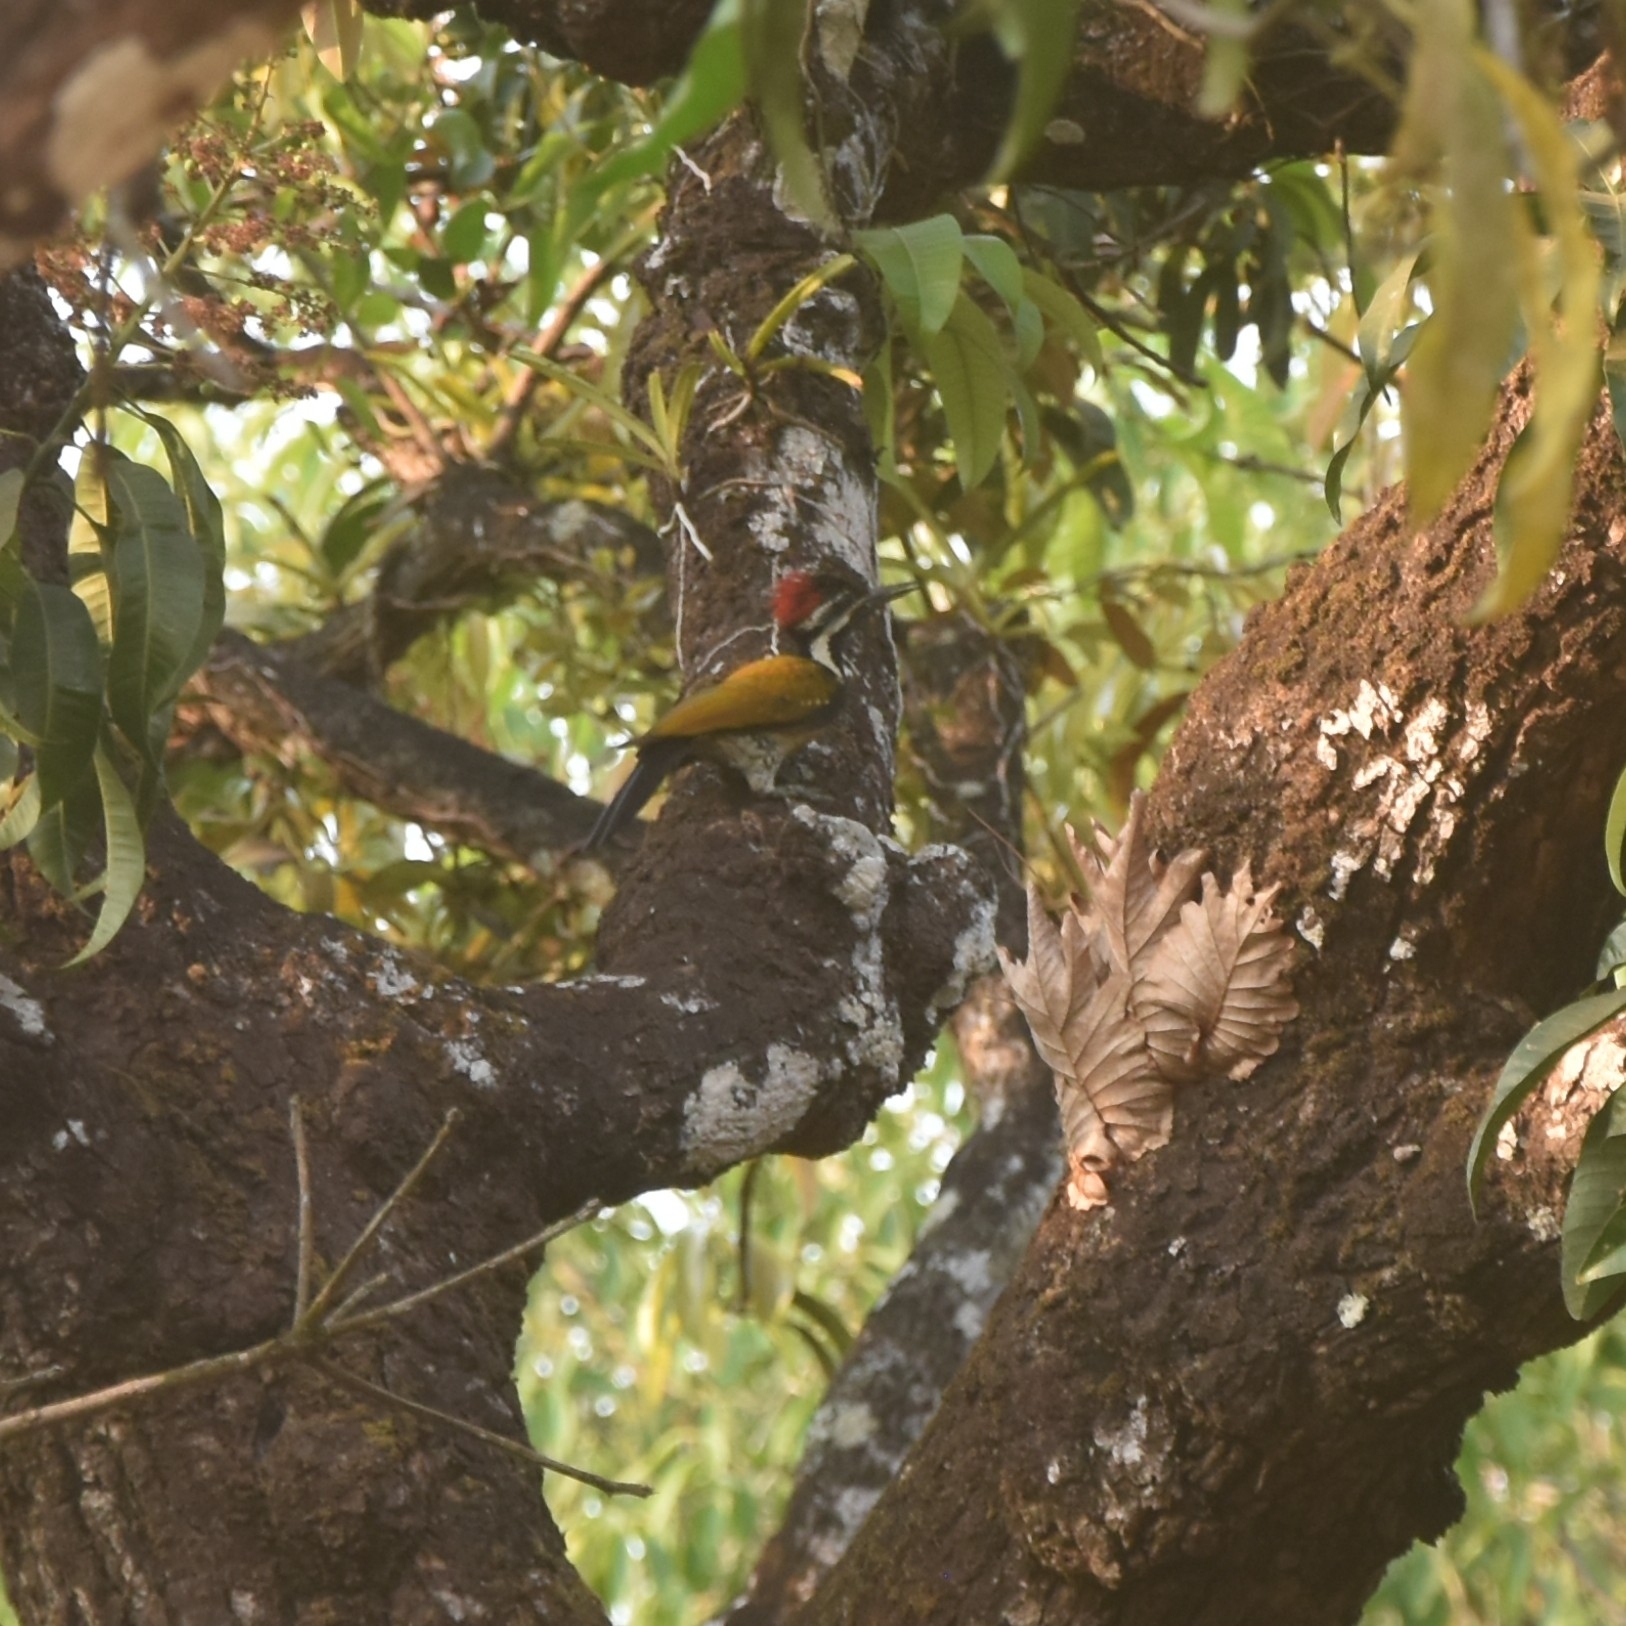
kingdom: Animalia
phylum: Chordata
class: Aves
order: Piciformes
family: Picidae
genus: Dinopium
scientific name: Dinopium benghalense
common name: Black-rumped flameback
